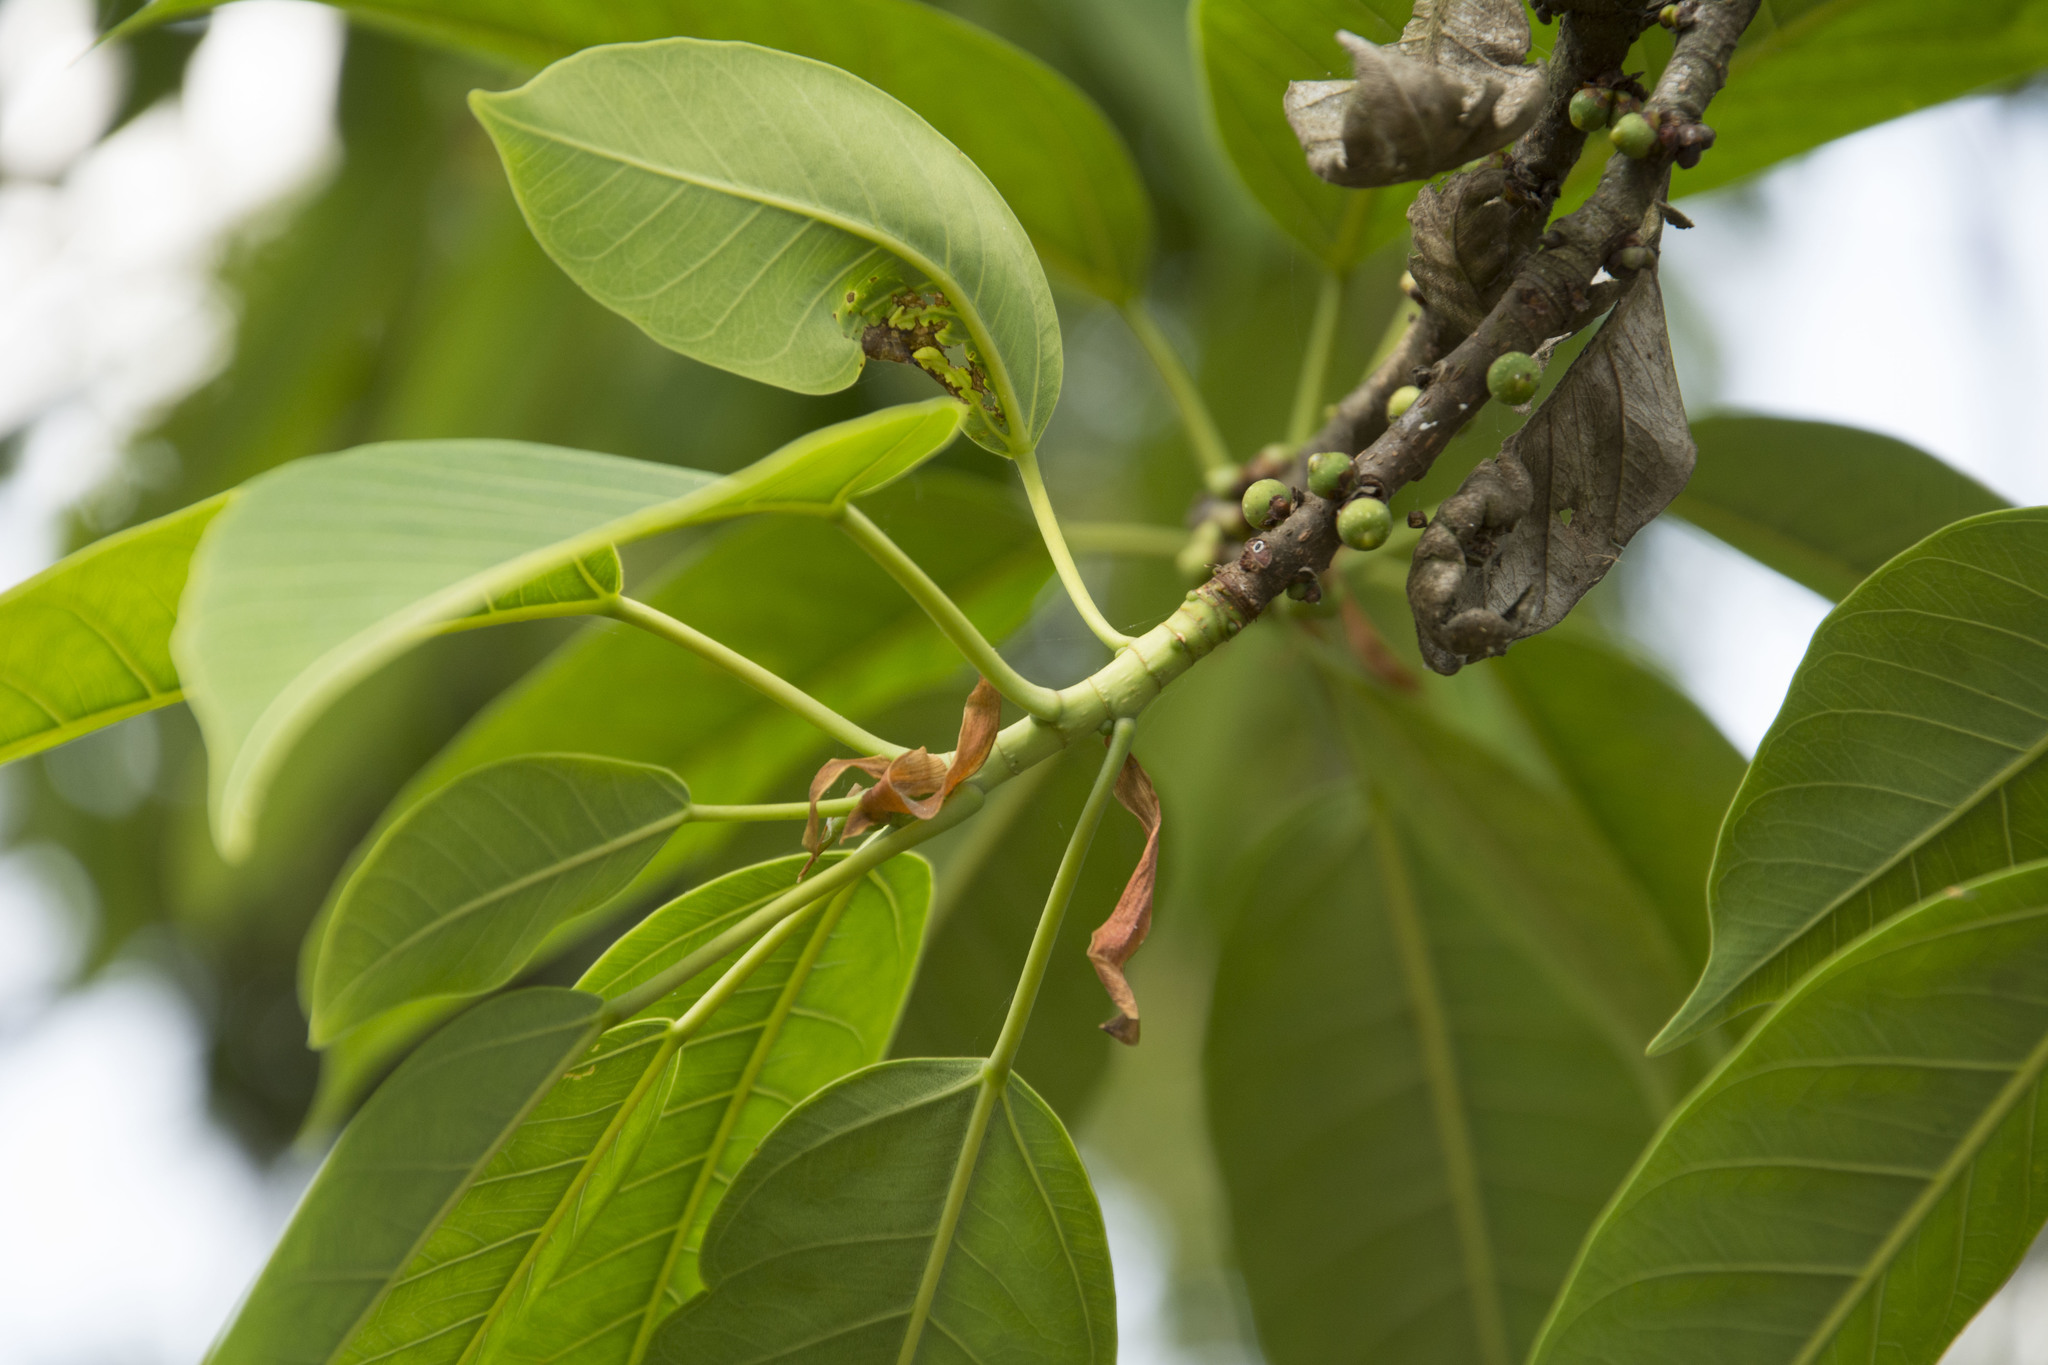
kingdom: Plantae
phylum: Tracheophyta
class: Magnoliopsida
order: Rosales
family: Moraceae
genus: Ficus
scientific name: Ficus tsjakela
